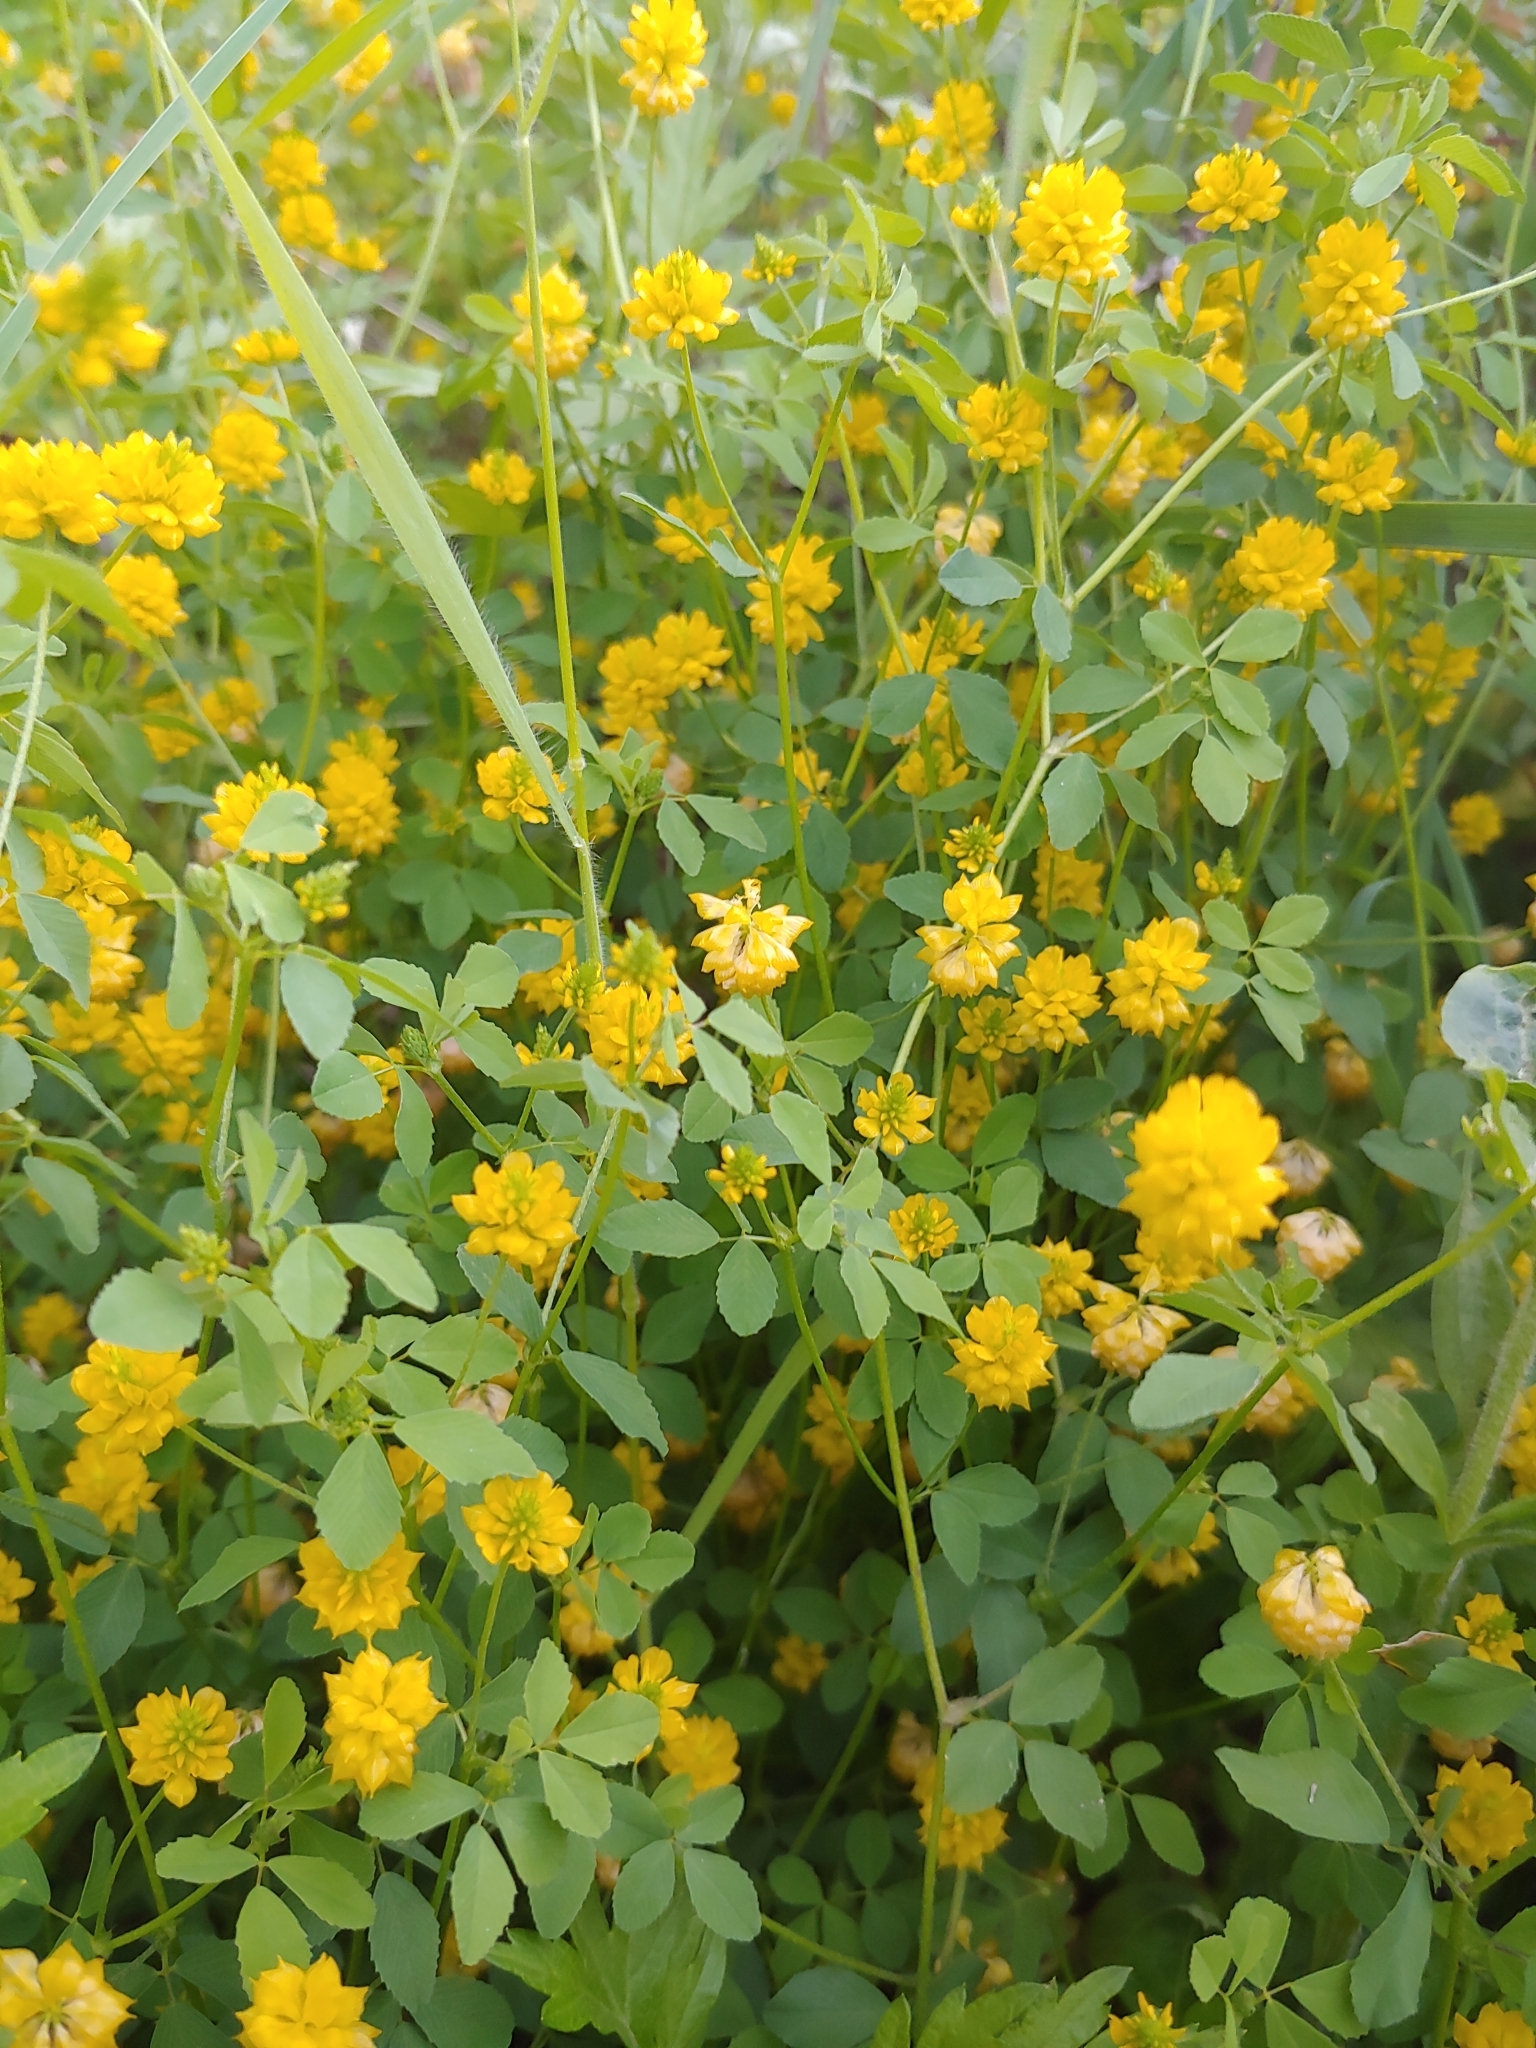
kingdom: Plantae
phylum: Tracheophyta
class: Magnoliopsida
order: Fabales
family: Fabaceae
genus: Trifolium
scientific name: Trifolium campestre
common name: Field clover
